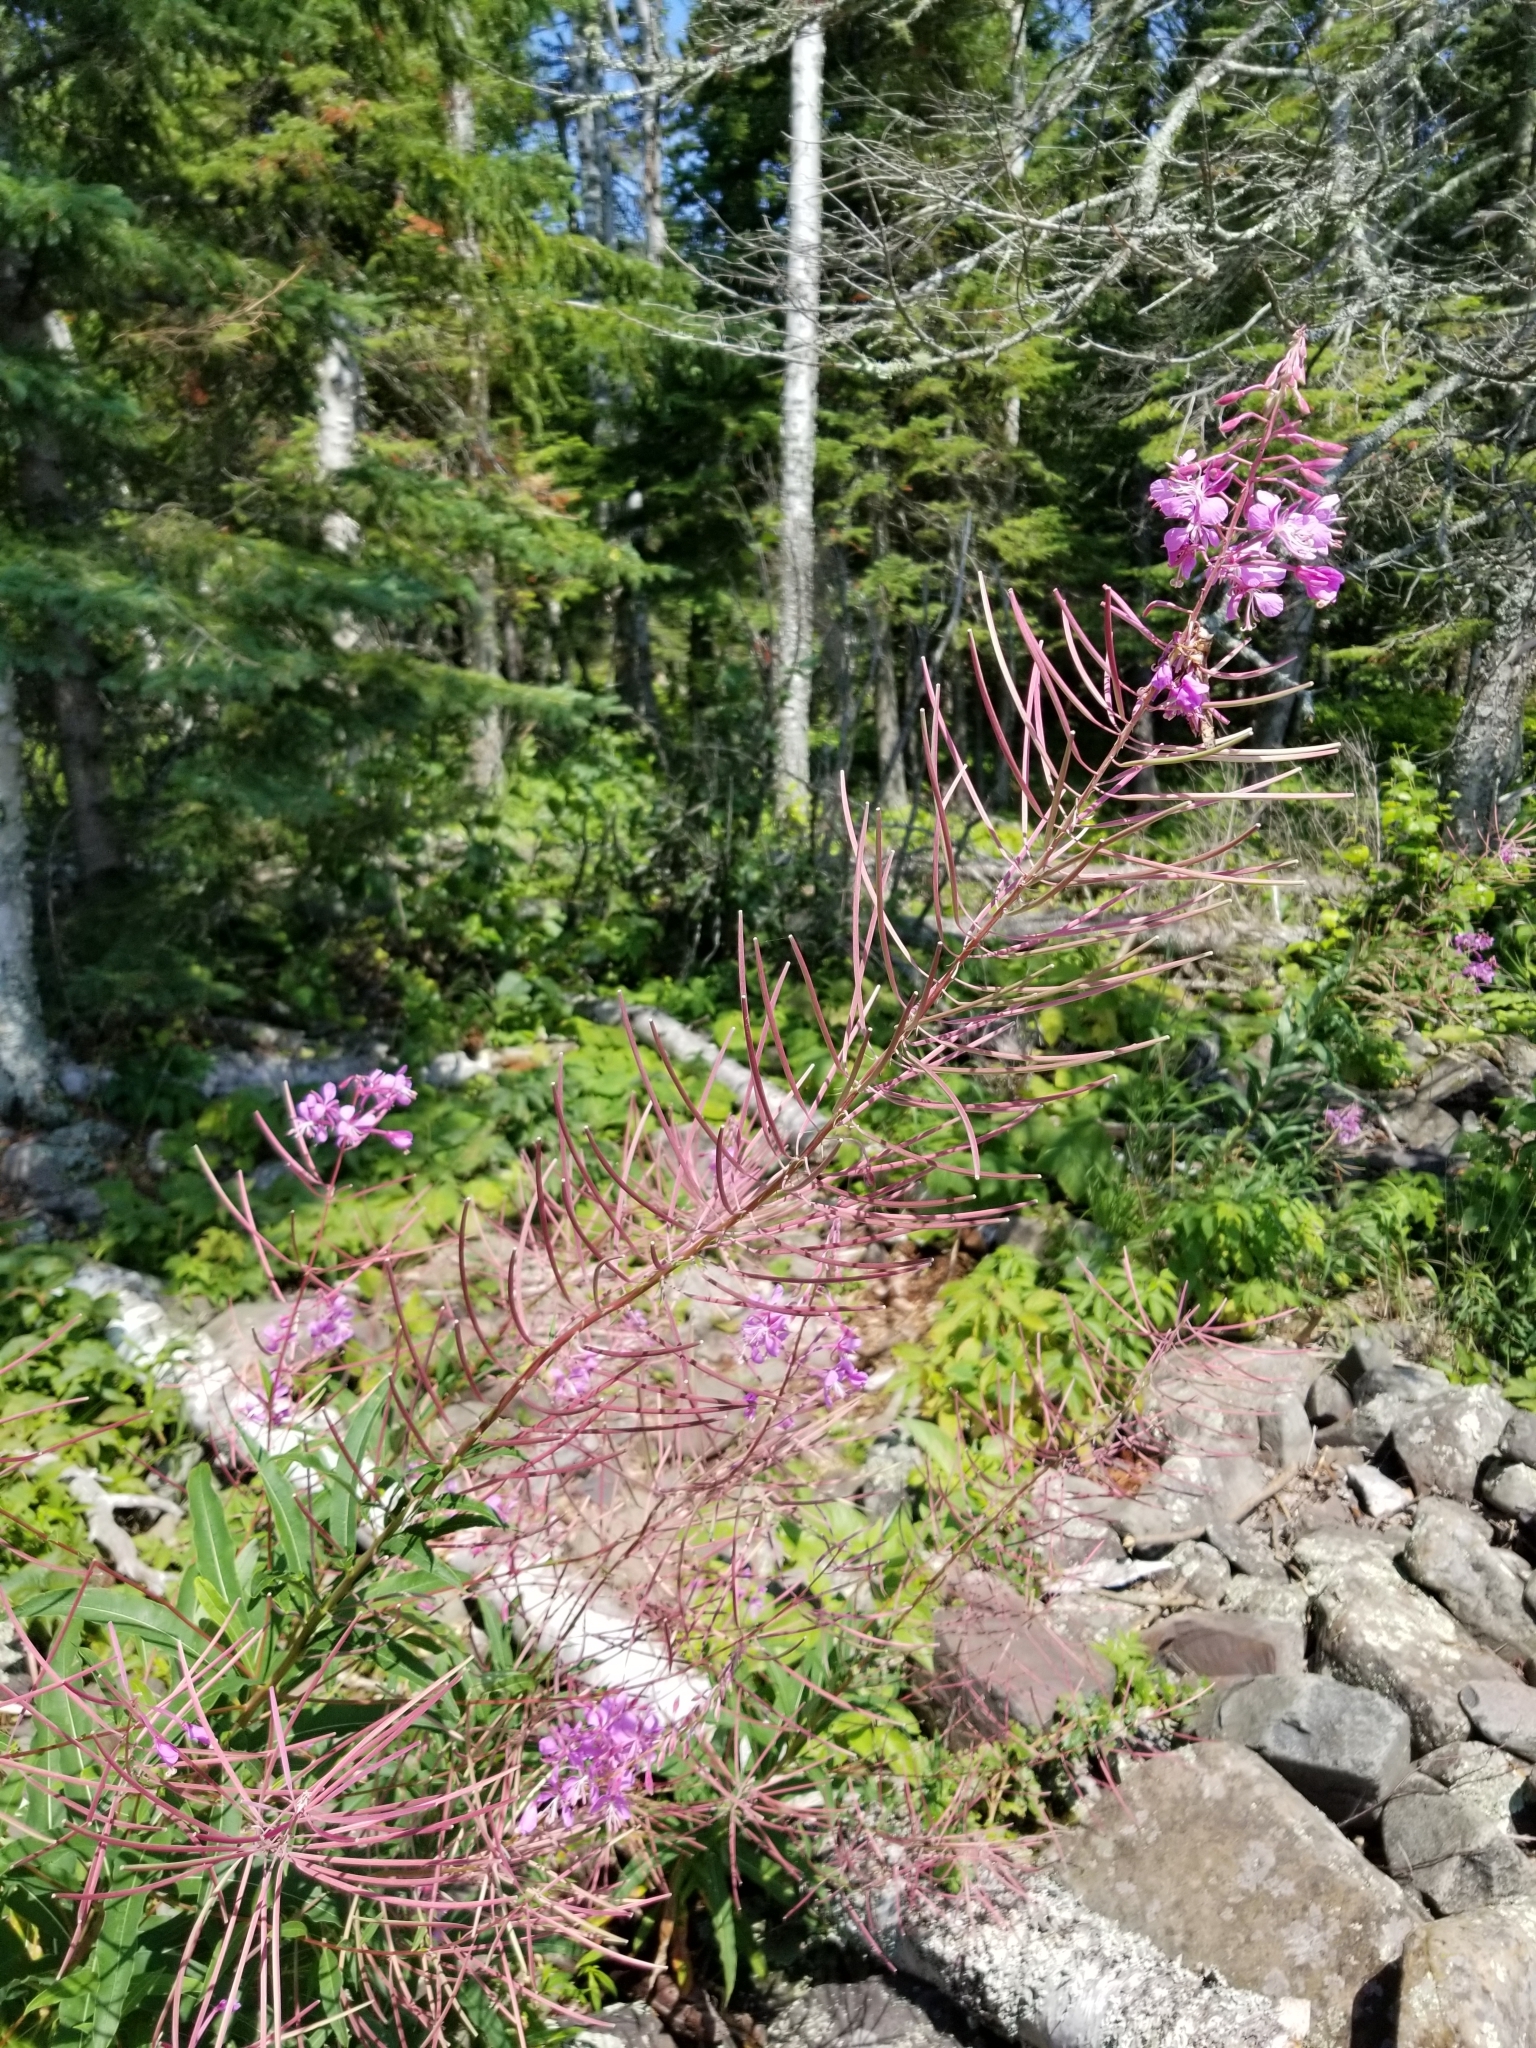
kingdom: Plantae
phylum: Tracheophyta
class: Magnoliopsida
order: Myrtales
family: Onagraceae
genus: Chamaenerion
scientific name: Chamaenerion angustifolium
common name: Fireweed
